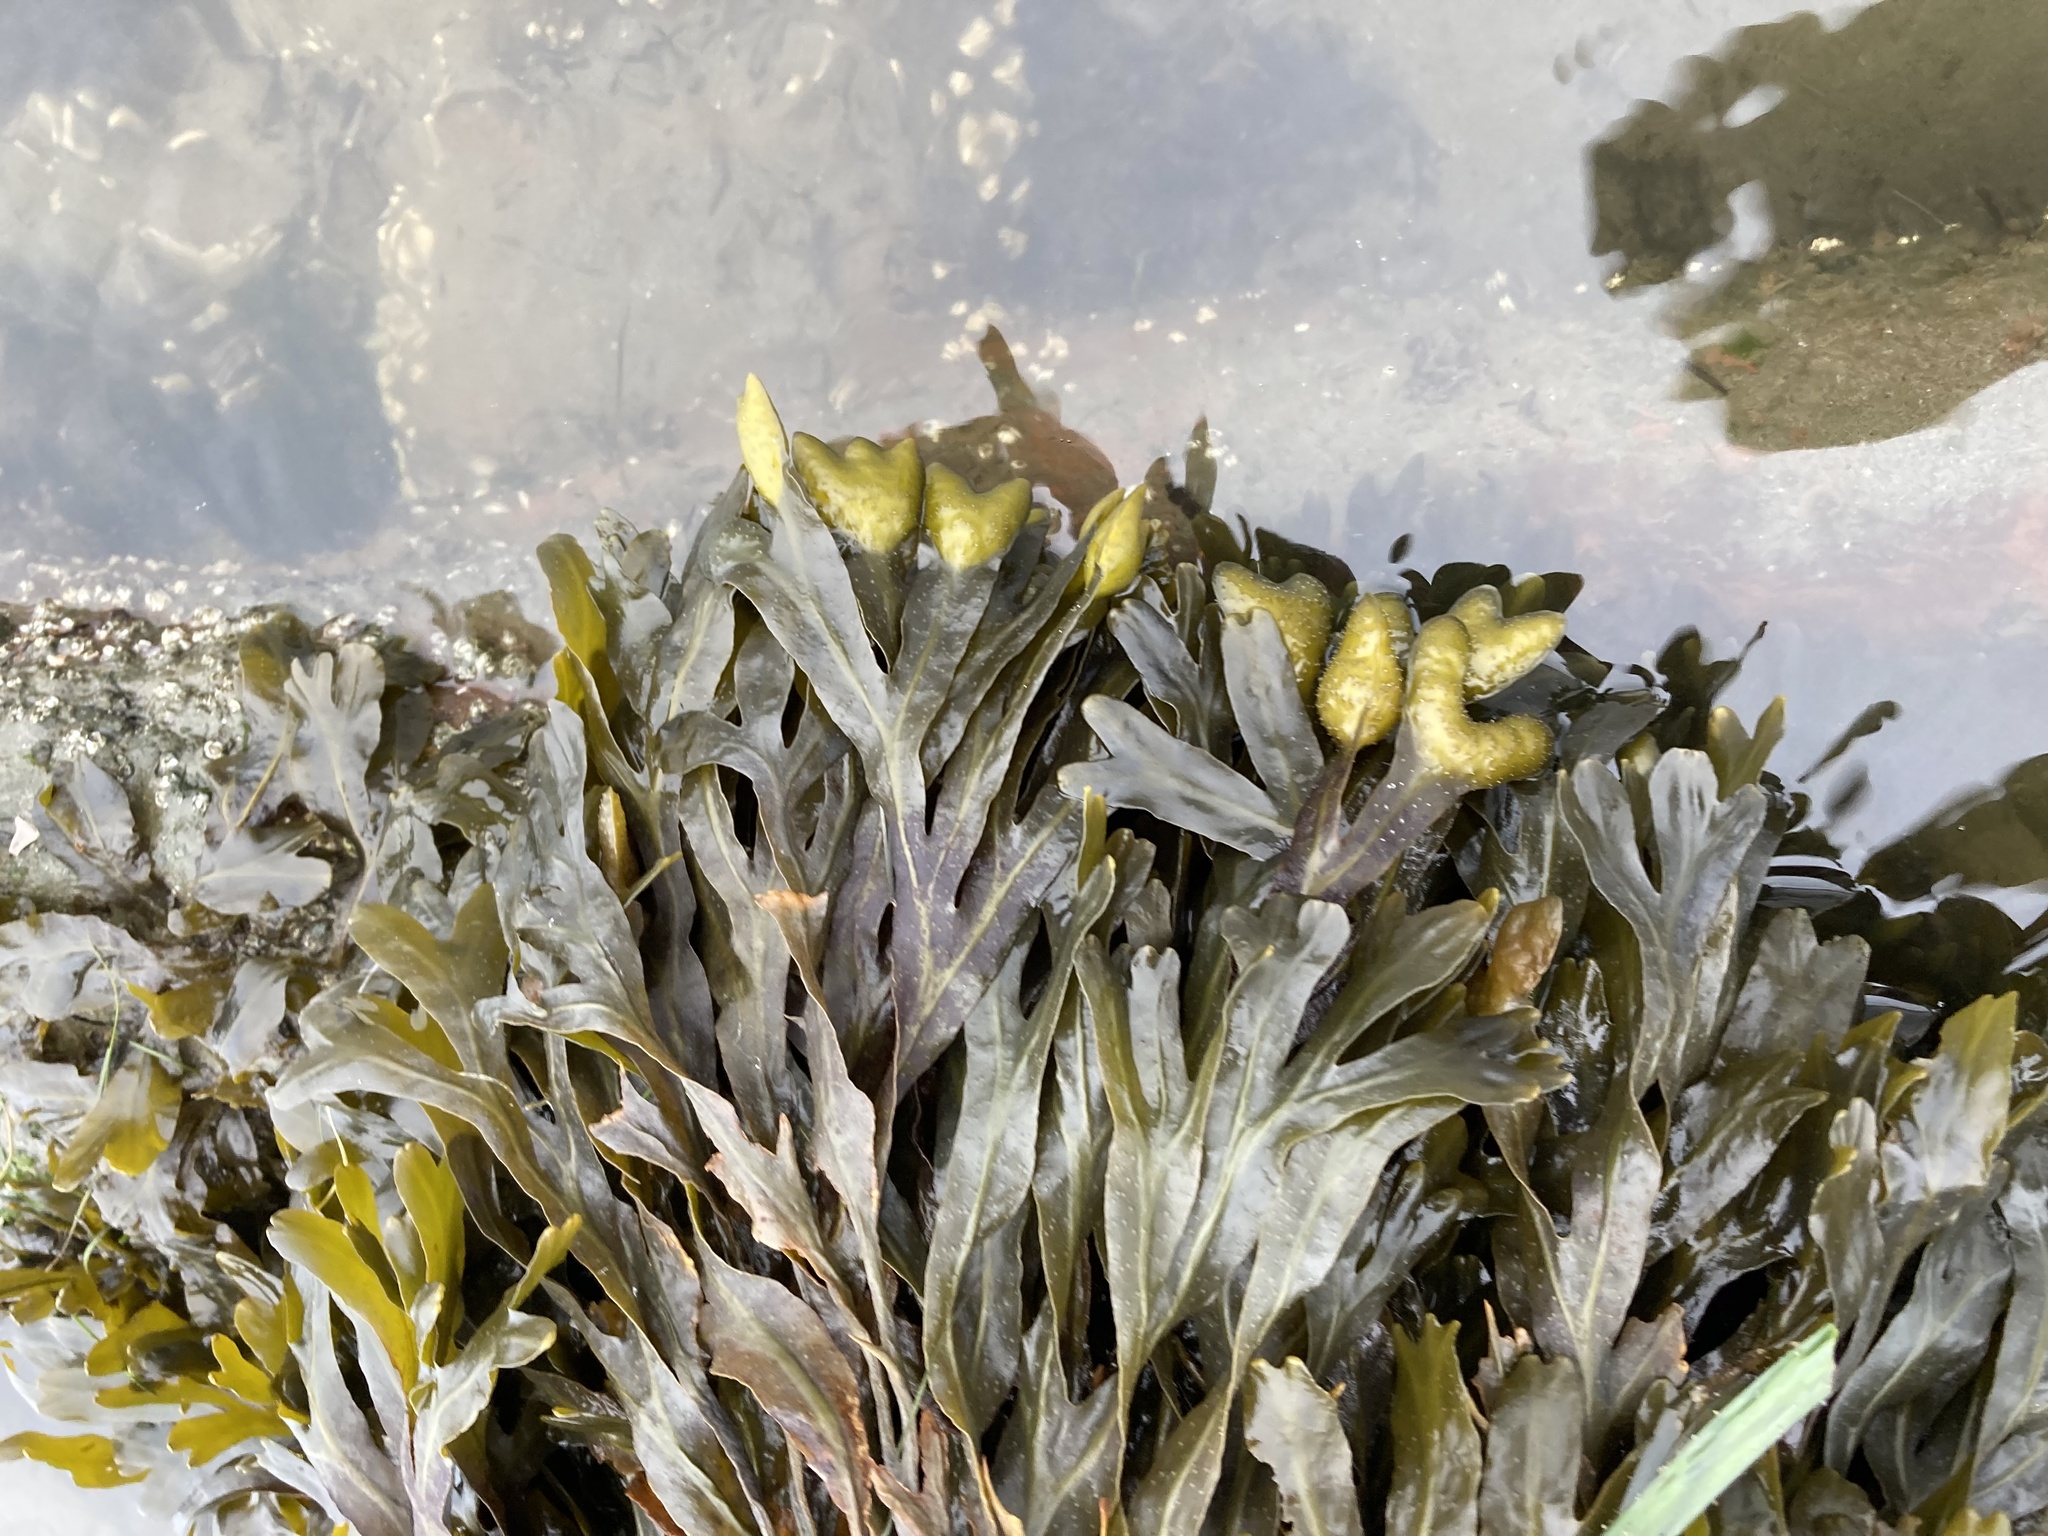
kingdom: Chromista
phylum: Ochrophyta
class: Phaeophyceae
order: Fucales
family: Fucaceae
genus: Fucus
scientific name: Fucus distichus
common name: Rockweed
